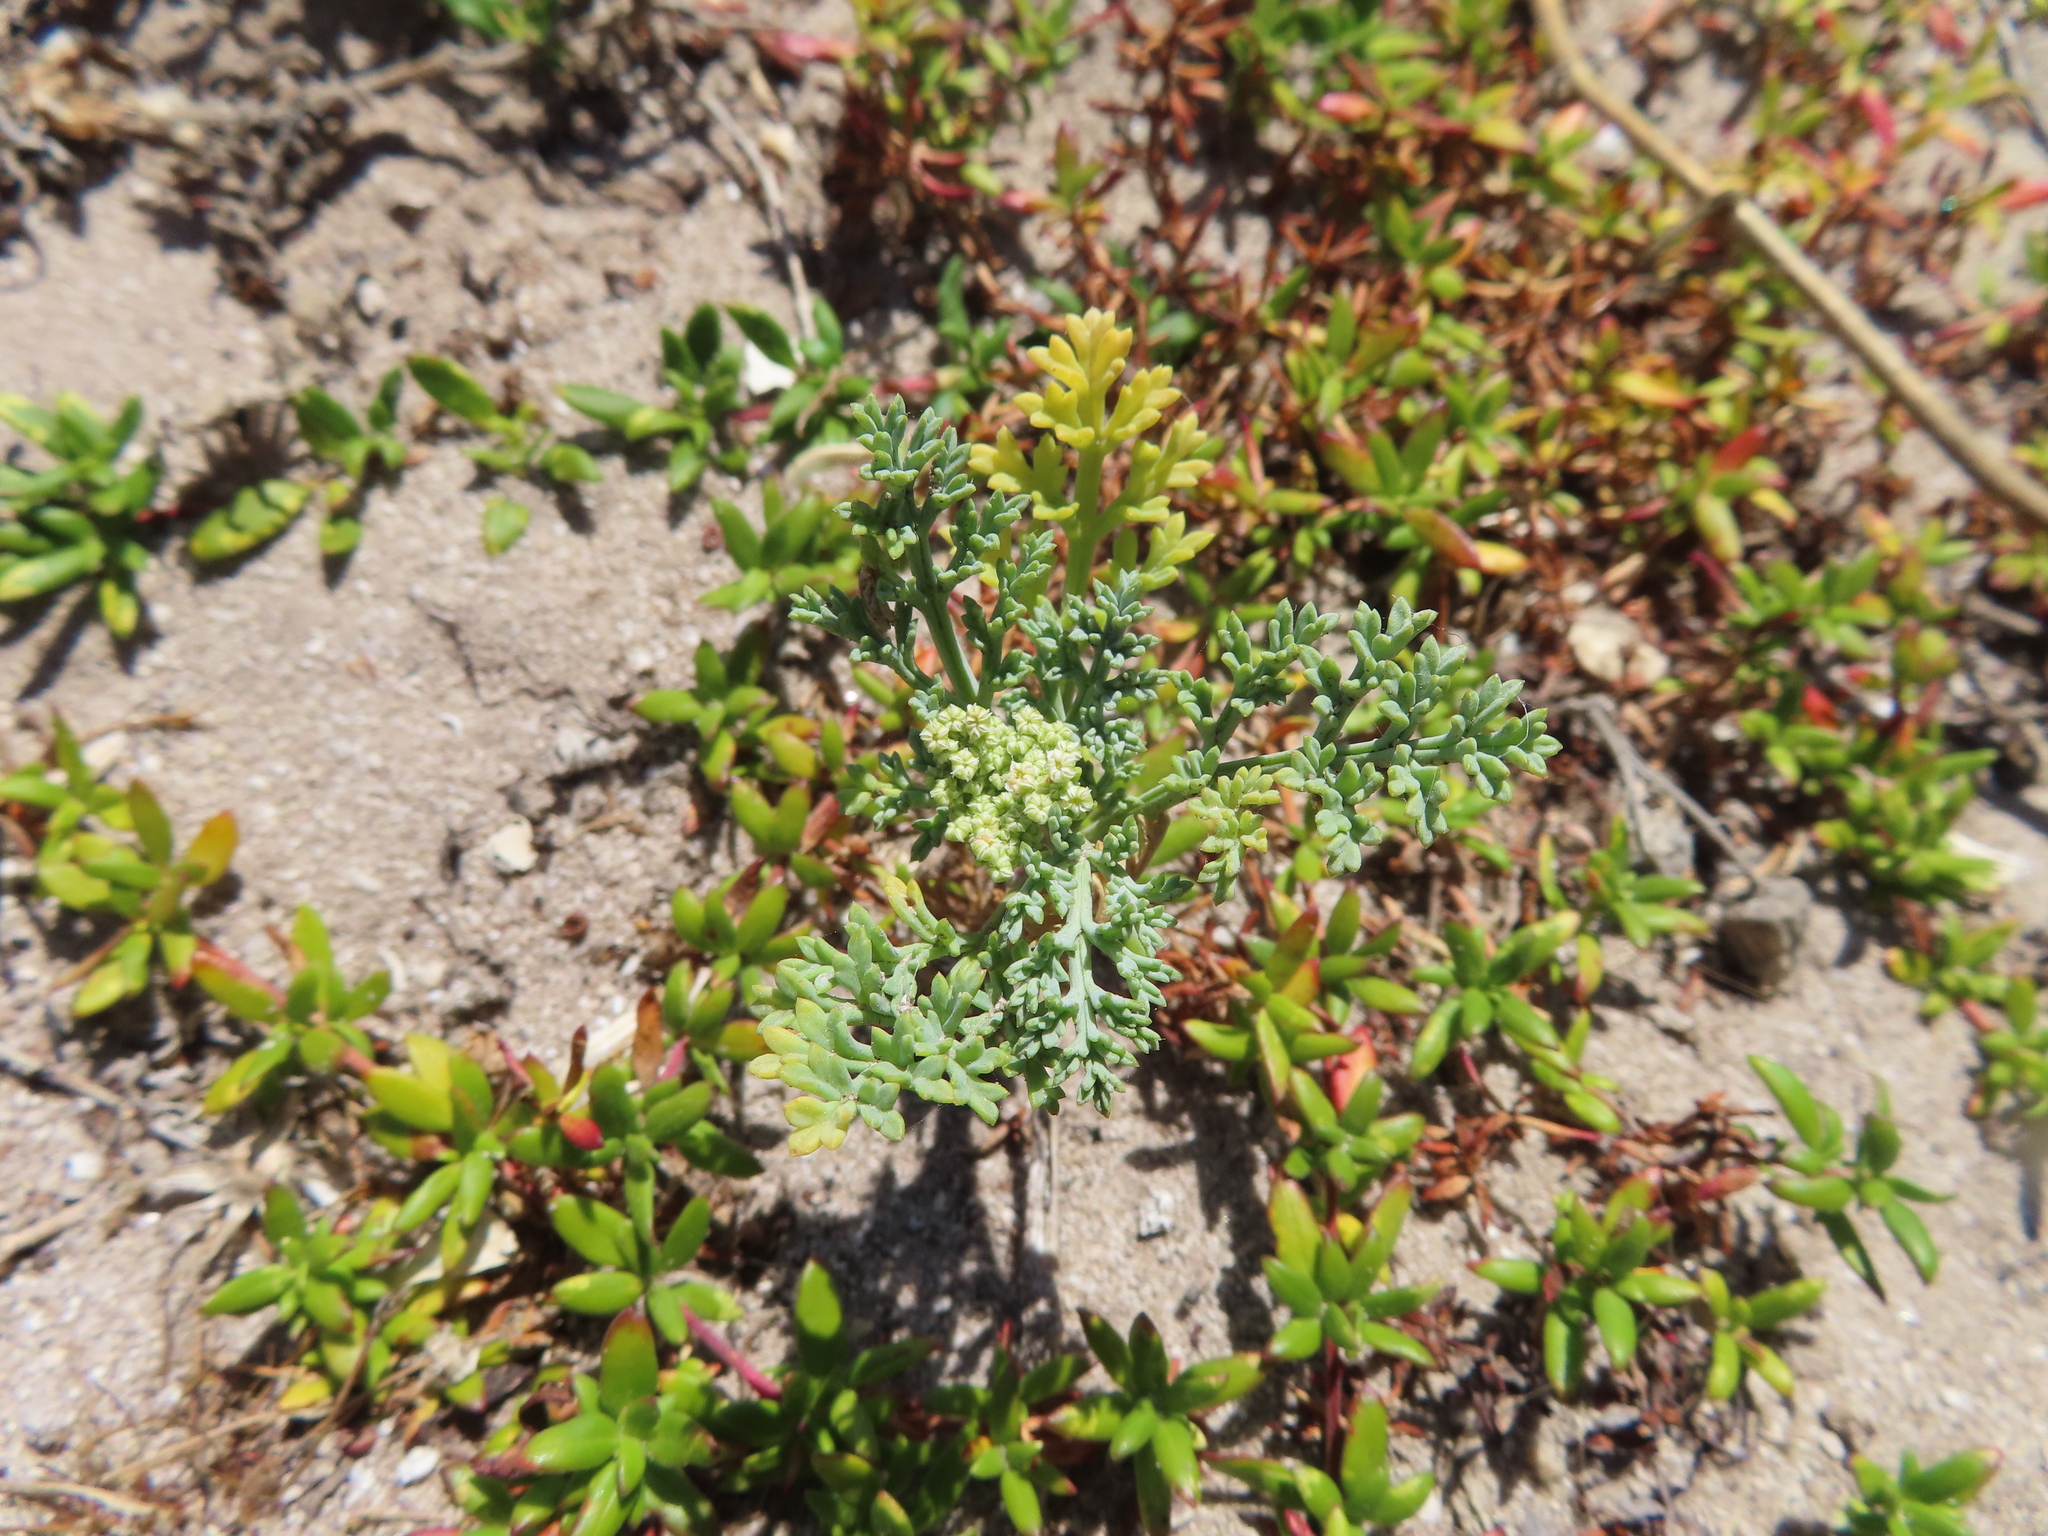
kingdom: Plantae
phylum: Tracheophyta
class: Magnoliopsida
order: Apiales
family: Apiaceae
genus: Dasispermum
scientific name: Dasispermum suffruticosum
